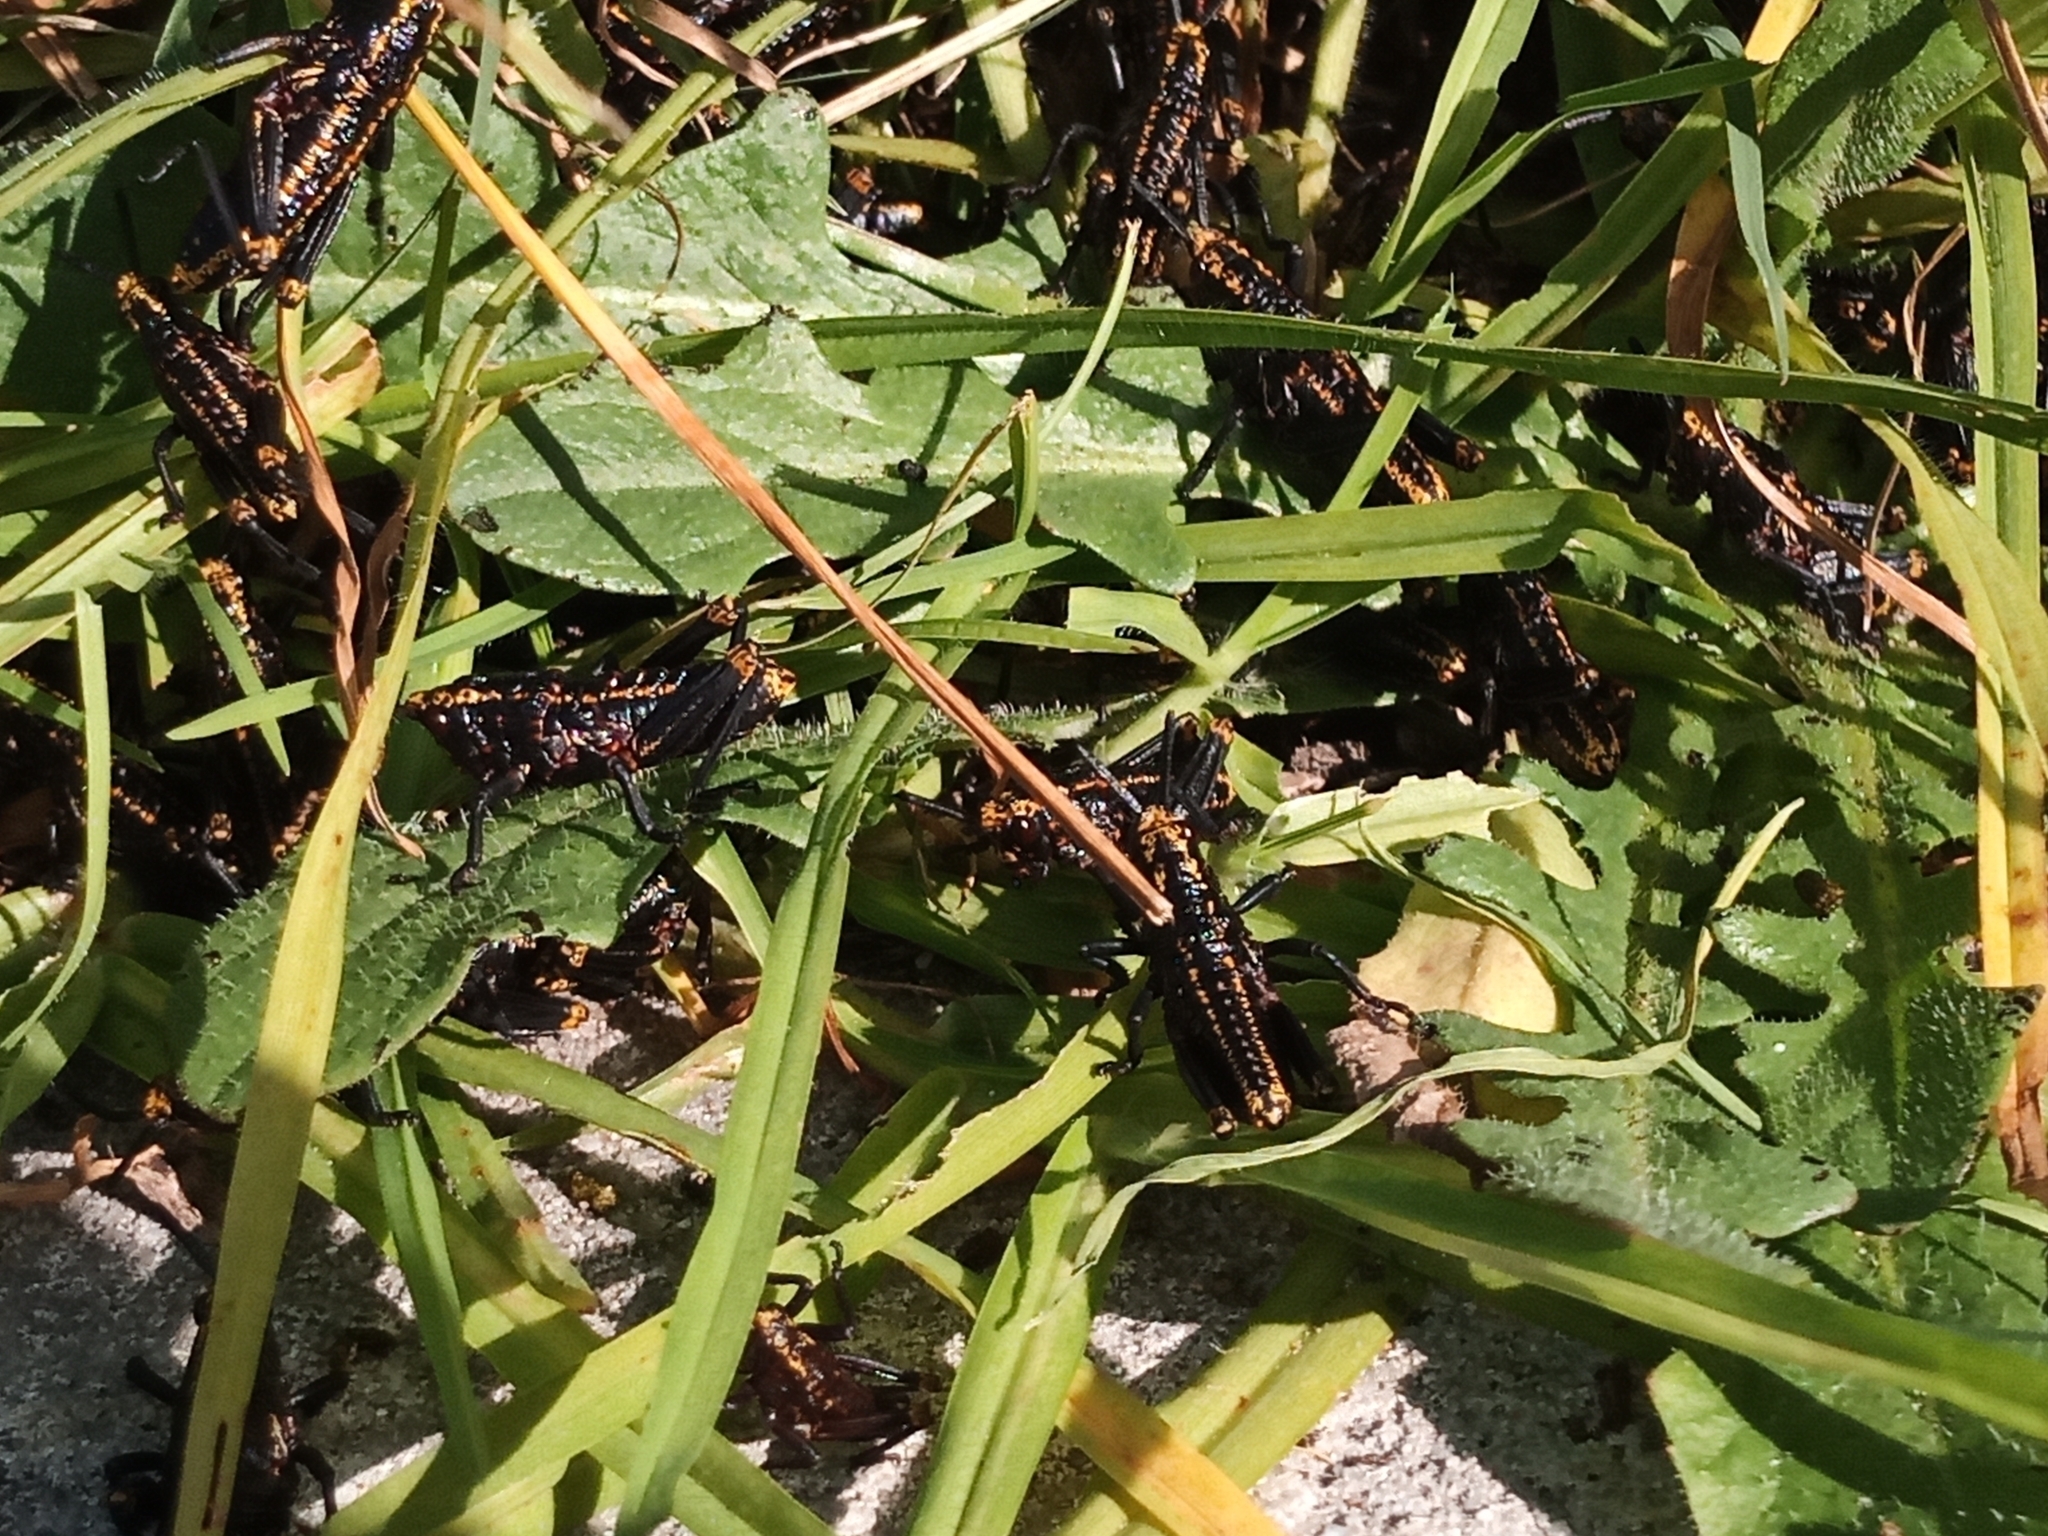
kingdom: Animalia
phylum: Arthropoda
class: Insecta
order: Orthoptera
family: Pyrgomorphidae
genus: Dictyophorus
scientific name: Dictyophorus spumans
